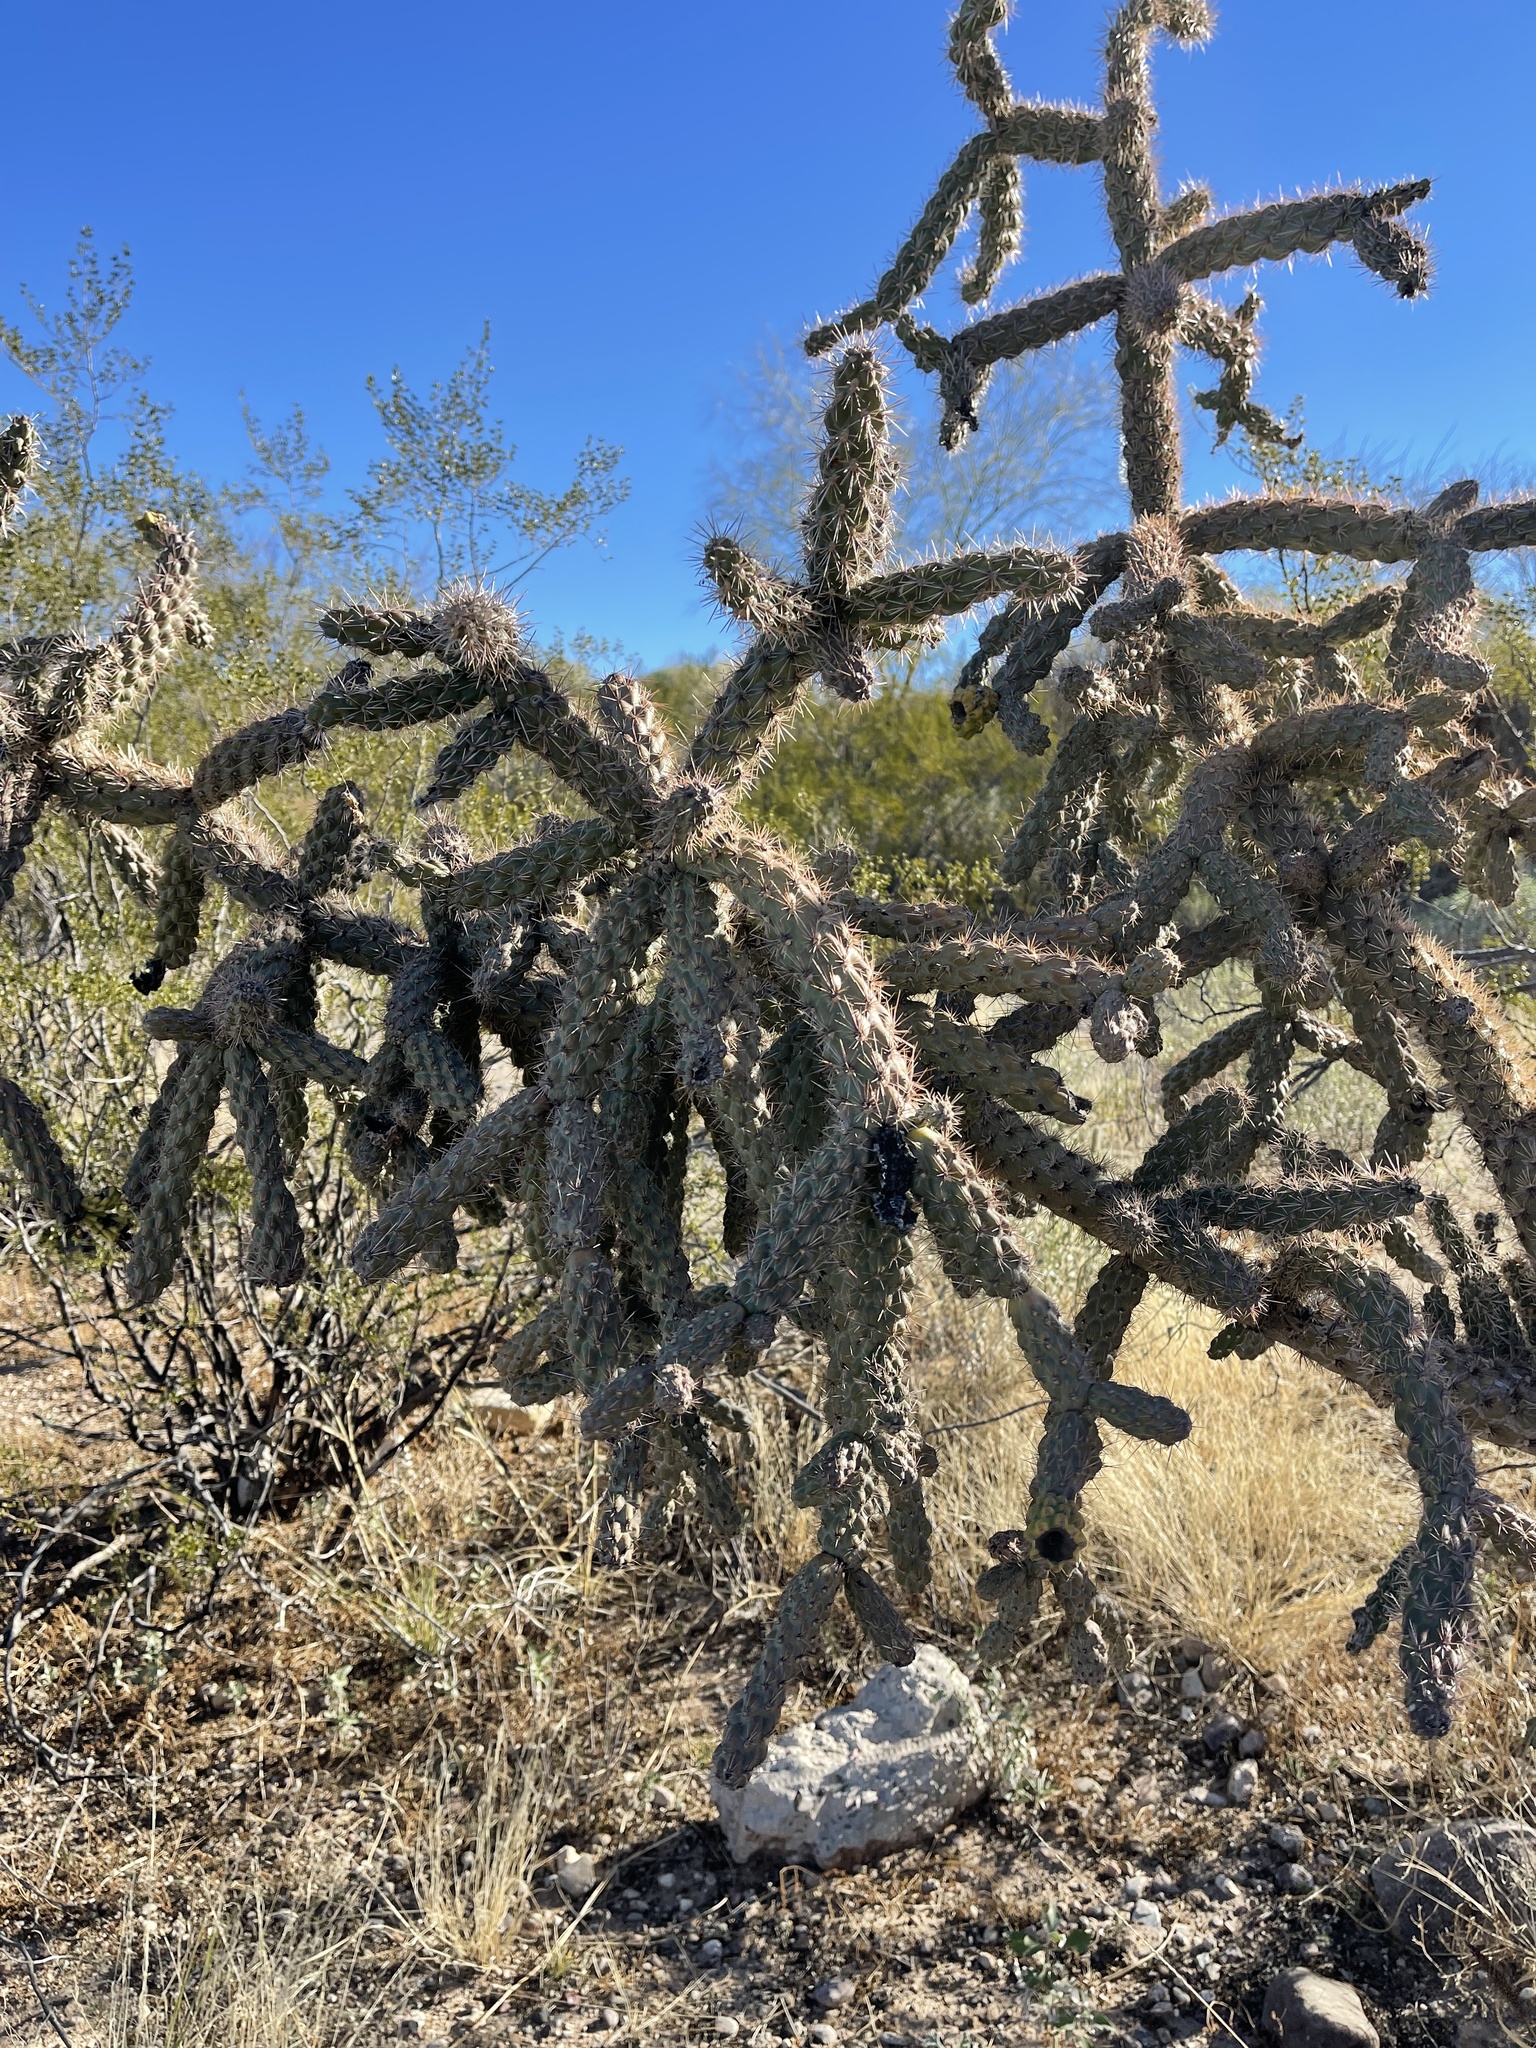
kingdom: Plantae
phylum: Tracheophyta
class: Magnoliopsida
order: Caryophyllales
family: Cactaceae
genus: Cylindropuntia
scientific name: Cylindropuntia acanthocarpa
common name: Buckhorn cholla
